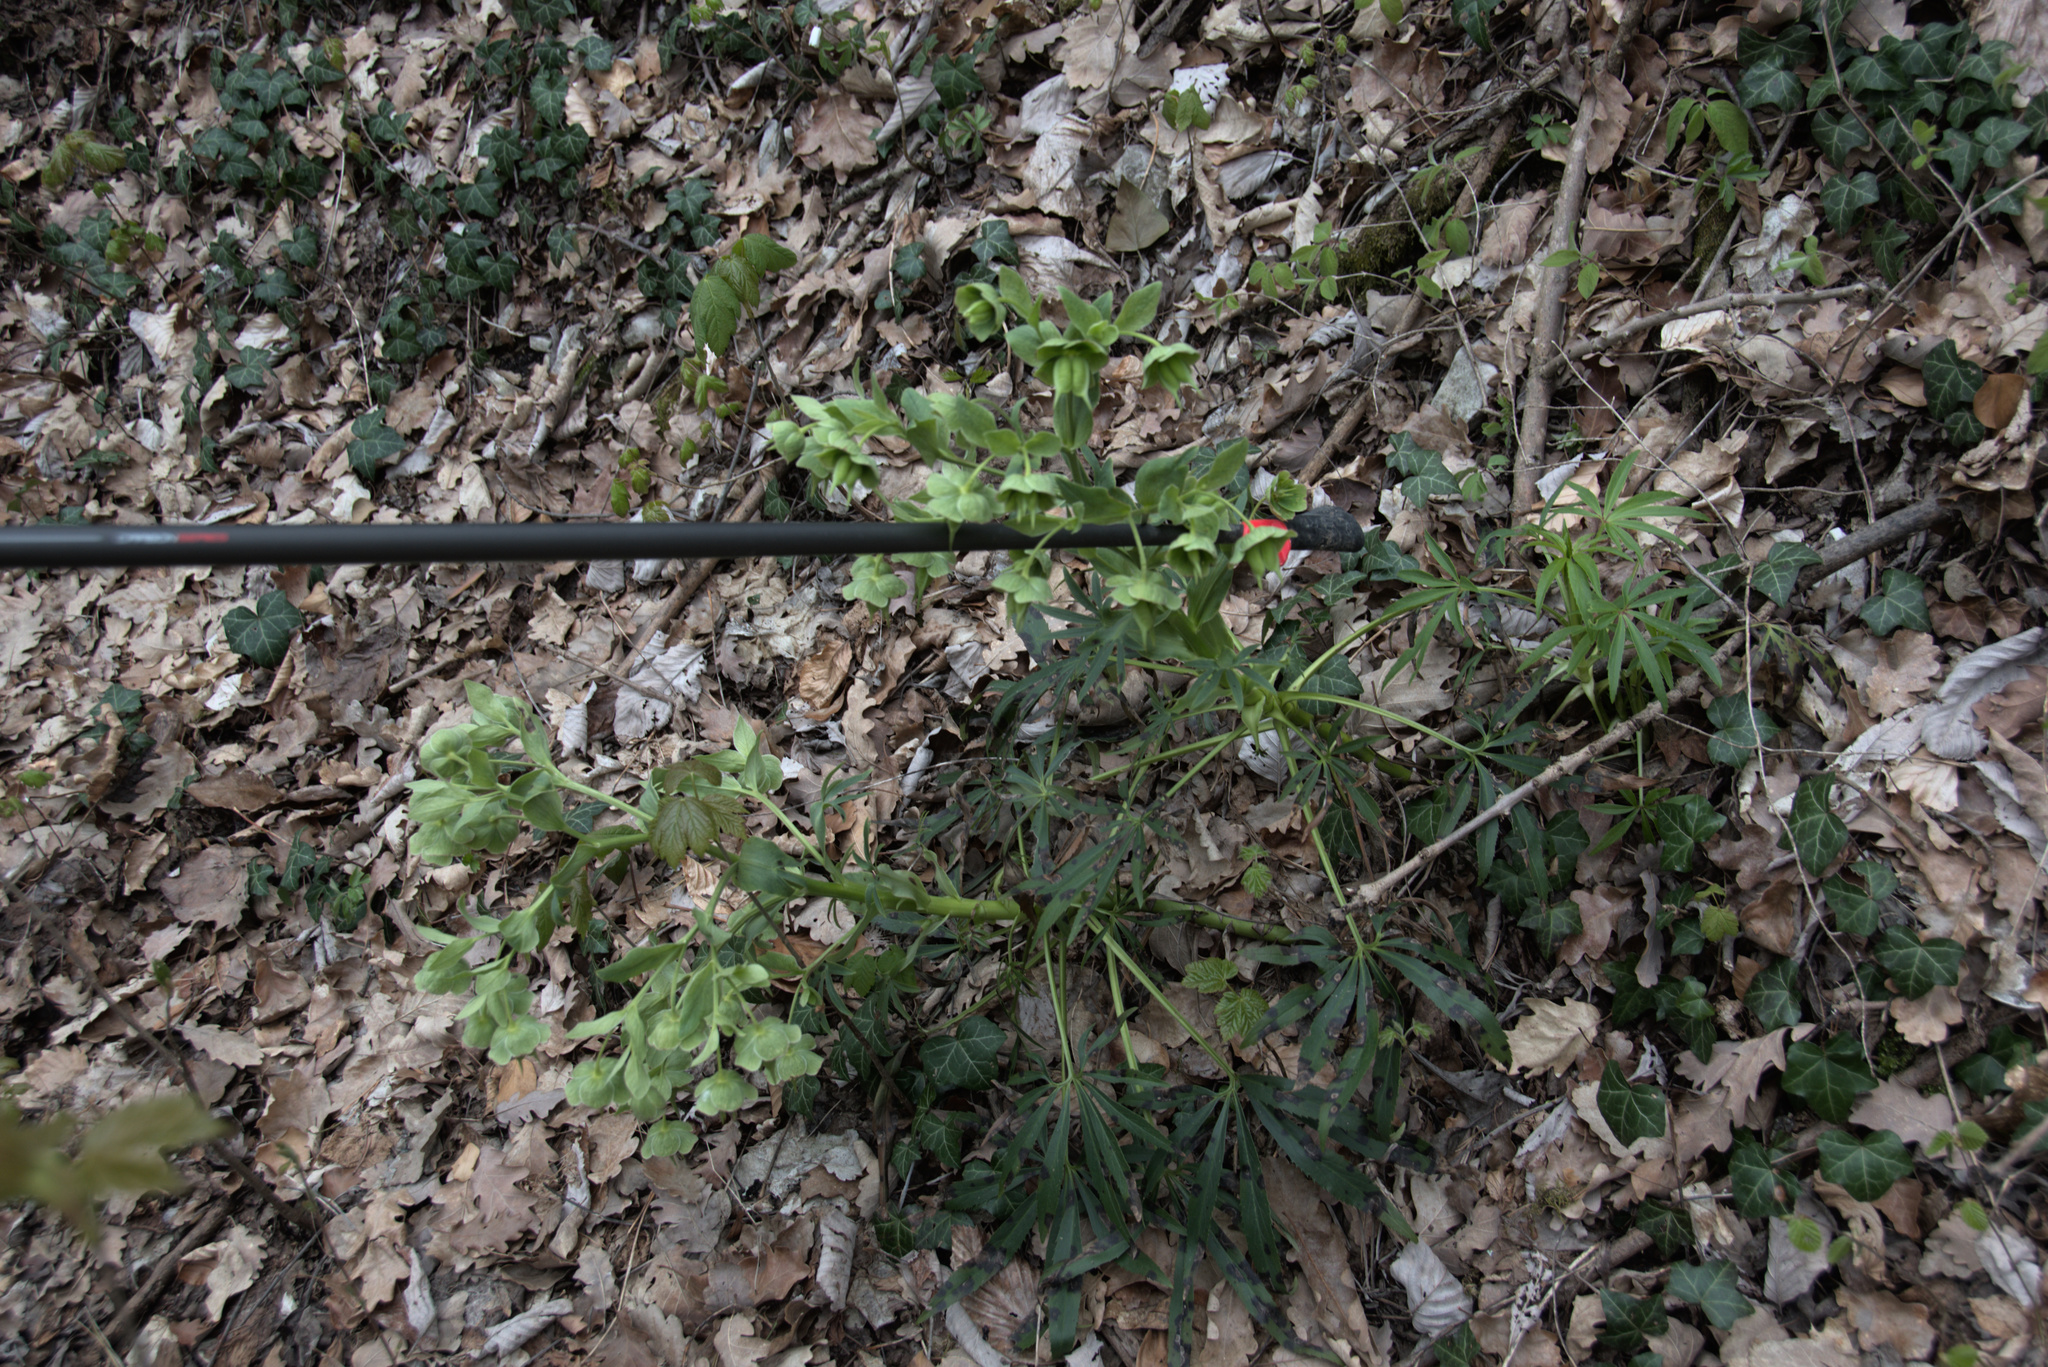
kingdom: Plantae
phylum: Tracheophyta
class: Magnoliopsida
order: Ranunculales
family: Ranunculaceae
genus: Helleborus
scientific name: Helleborus foetidus
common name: Stinking hellebore
